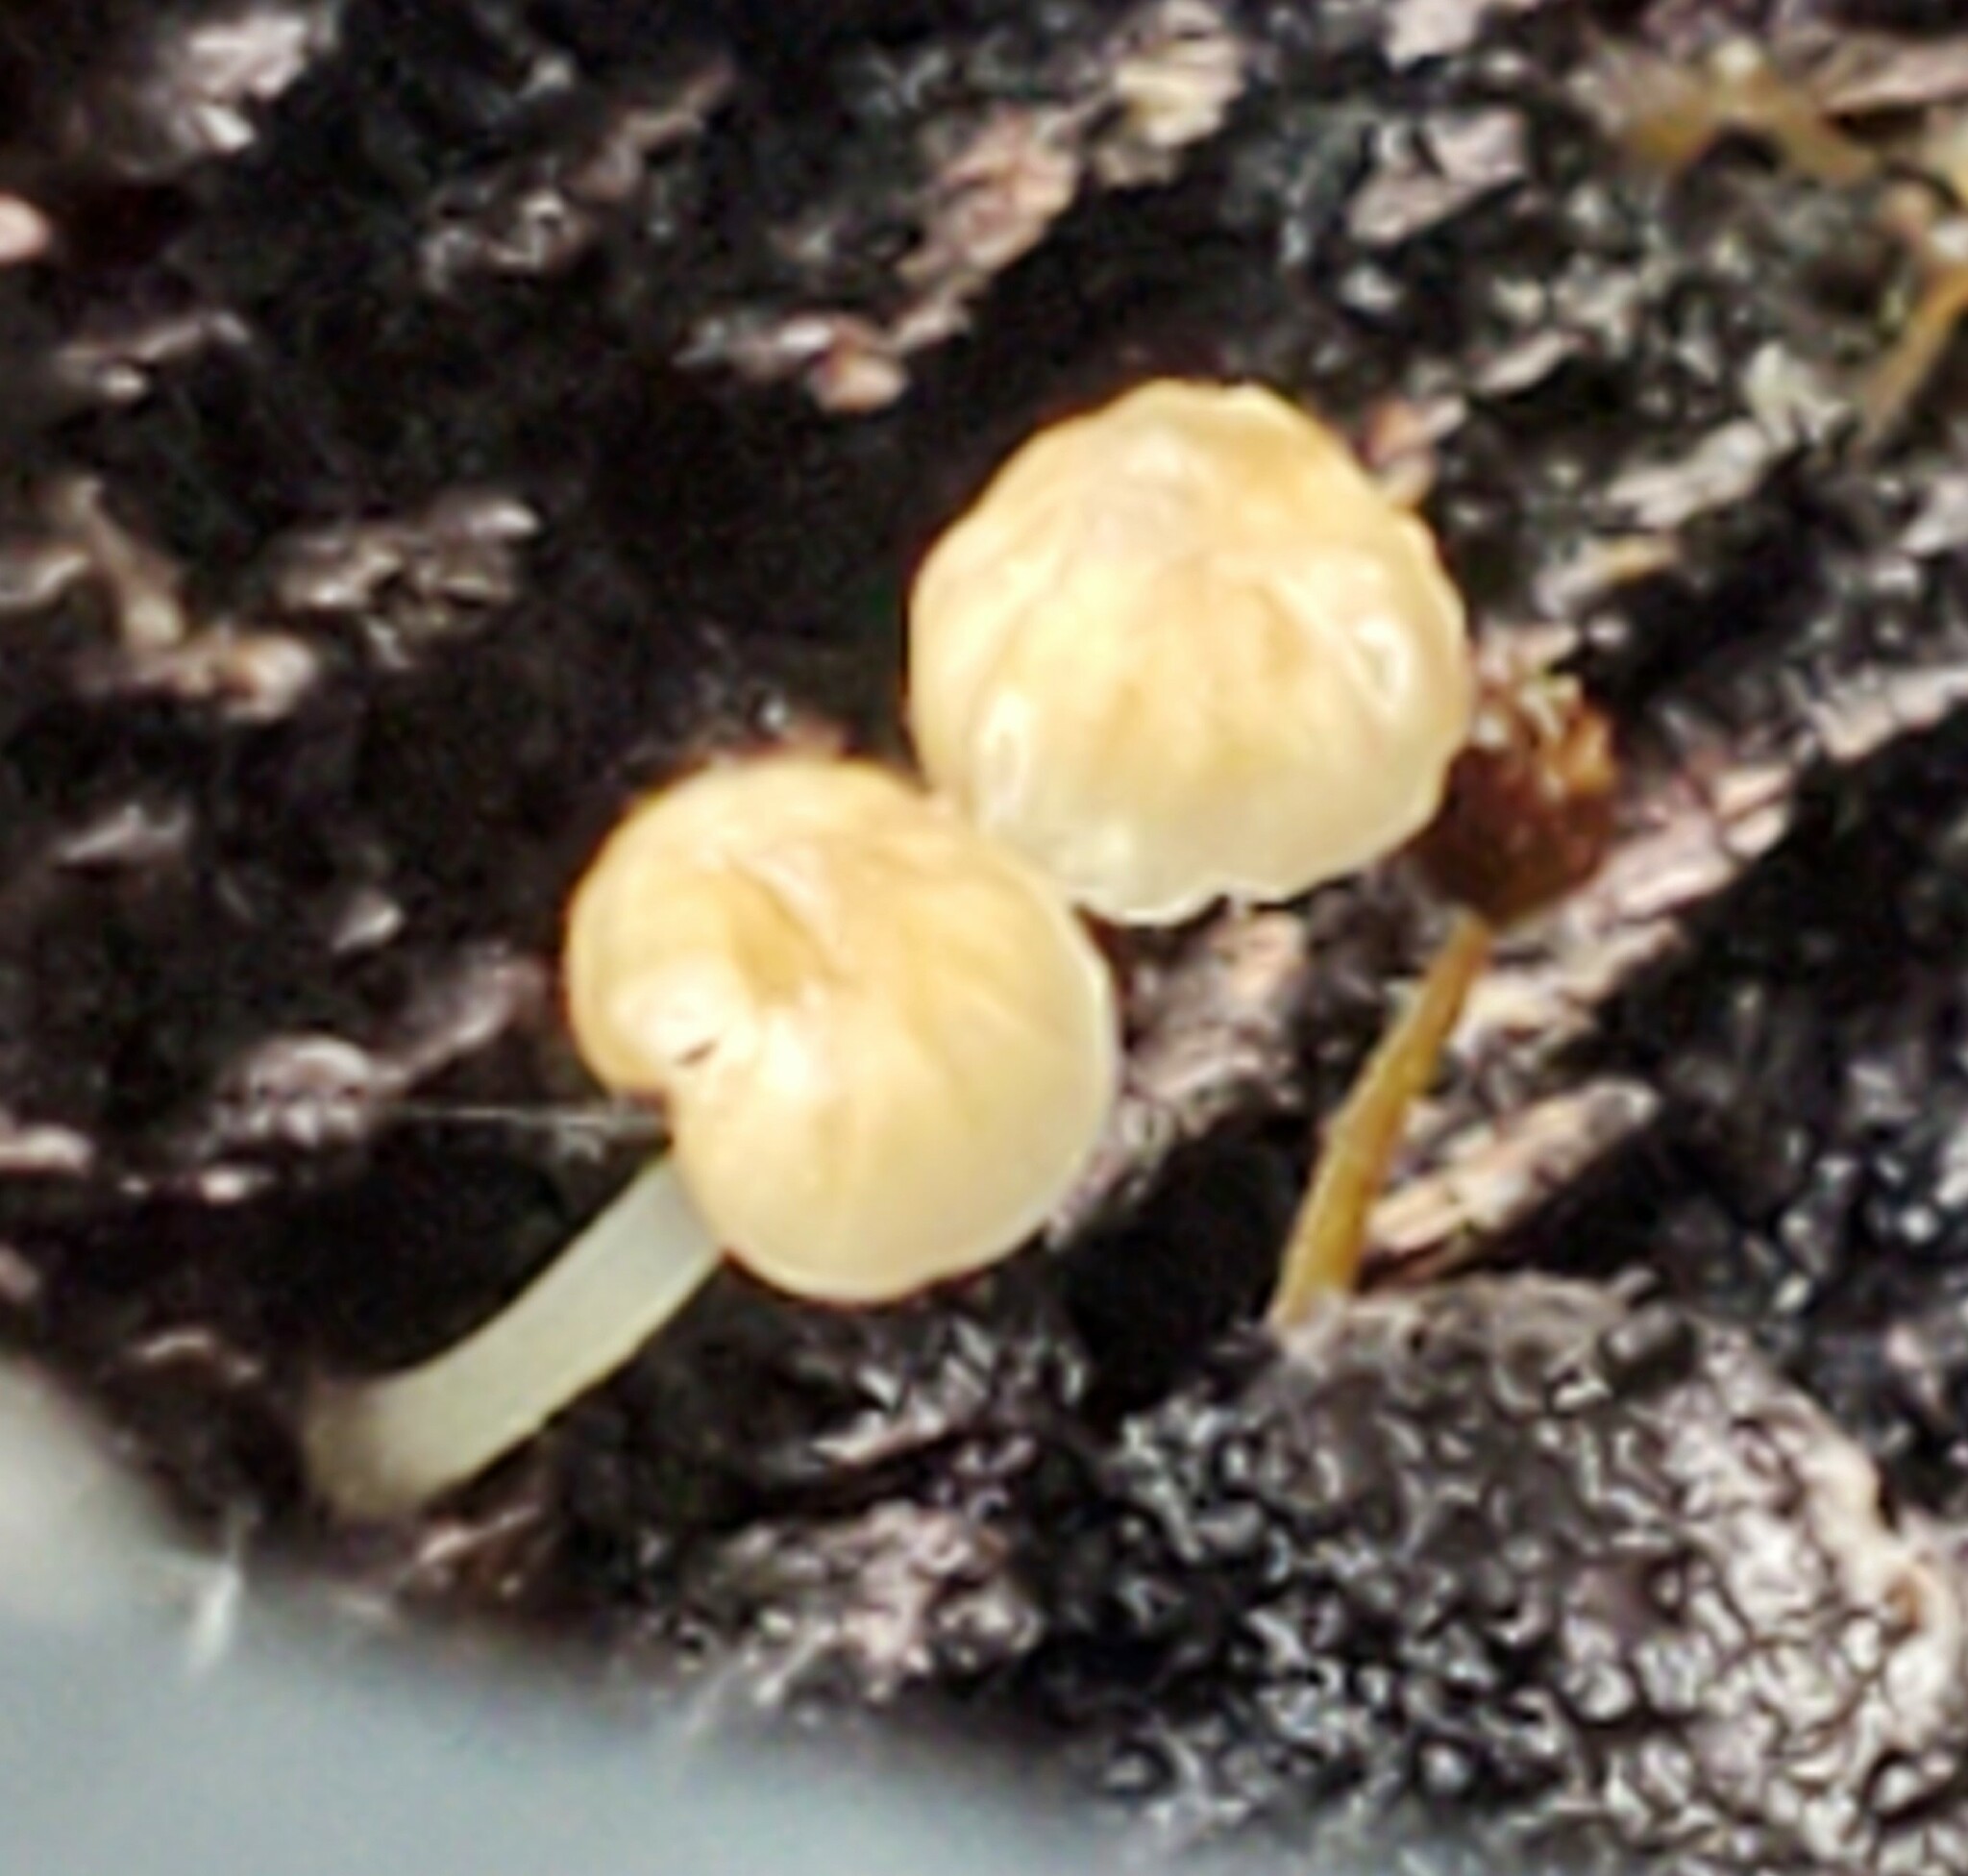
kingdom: Fungi
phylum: Basidiomycota
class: Agaricomycetes
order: Agaricales
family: Porotheleaceae
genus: Phloeomana
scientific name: Phloeomana speirea
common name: Bark bonnet
